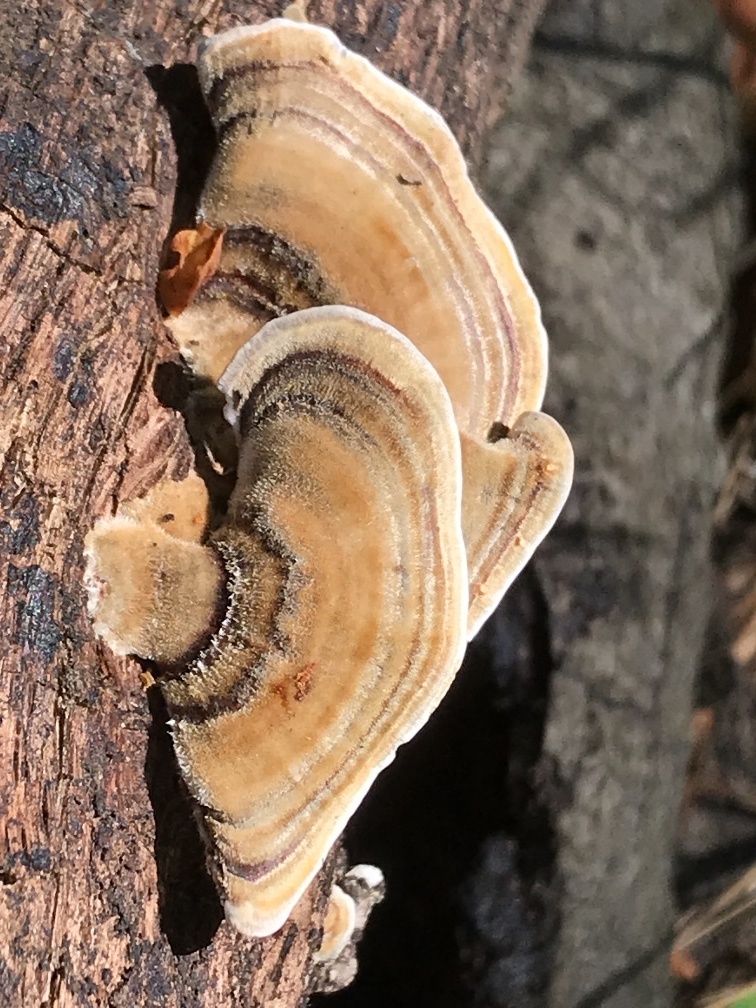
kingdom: Fungi
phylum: Basidiomycota
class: Agaricomycetes
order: Polyporales
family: Polyporaceae
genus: Trametes
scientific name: Trametes versicolor
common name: Turkeytail
